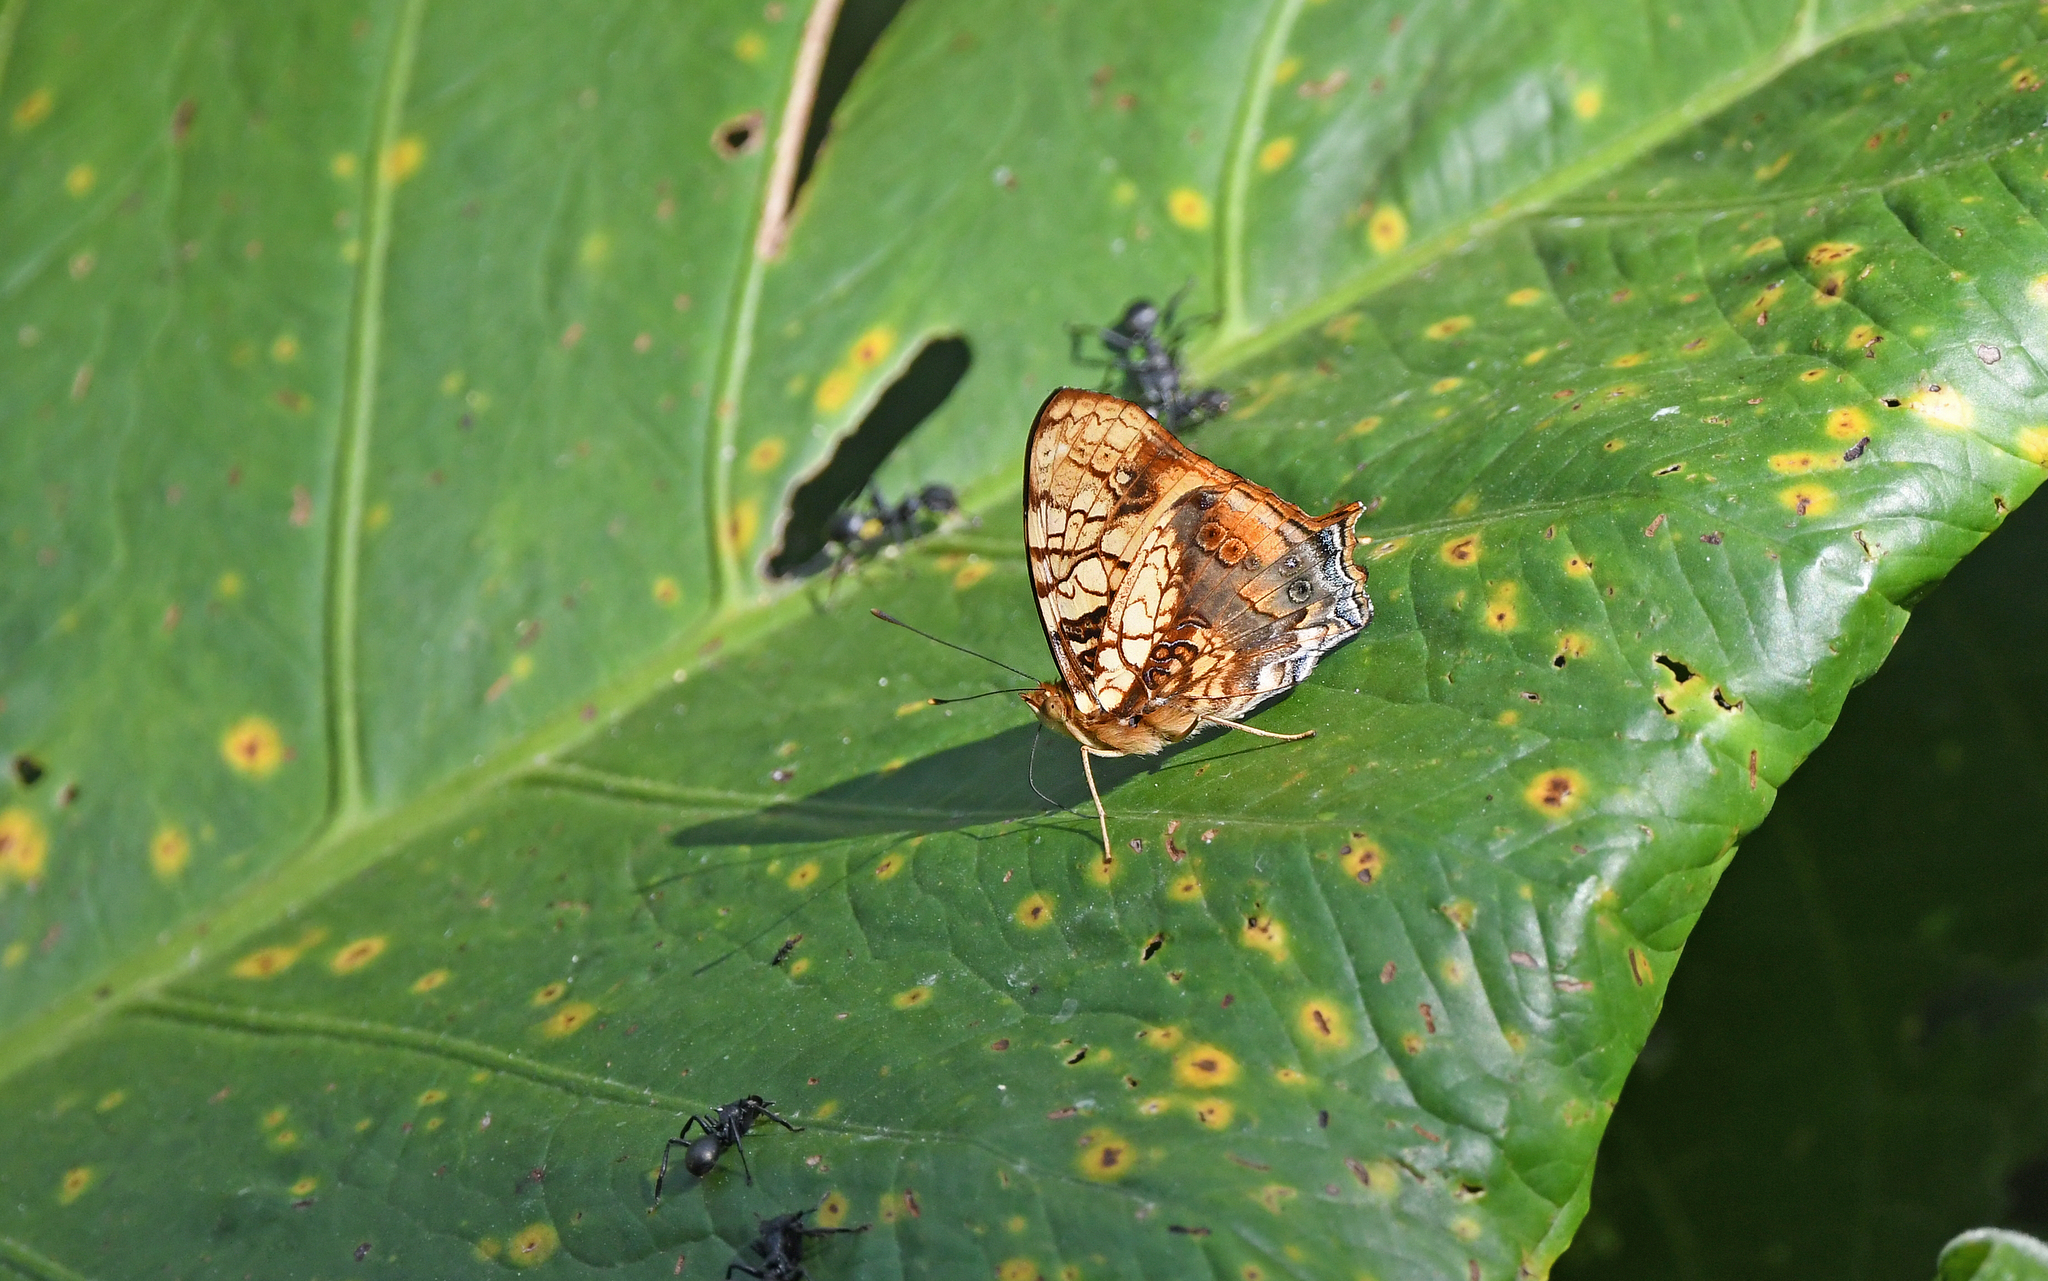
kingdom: Animalia
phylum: Arthropoda
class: Insecta
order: Lepidoptera
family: Nymphalidae
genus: Hypanartia
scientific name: Hypanartia lethe
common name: Orange mapwing
